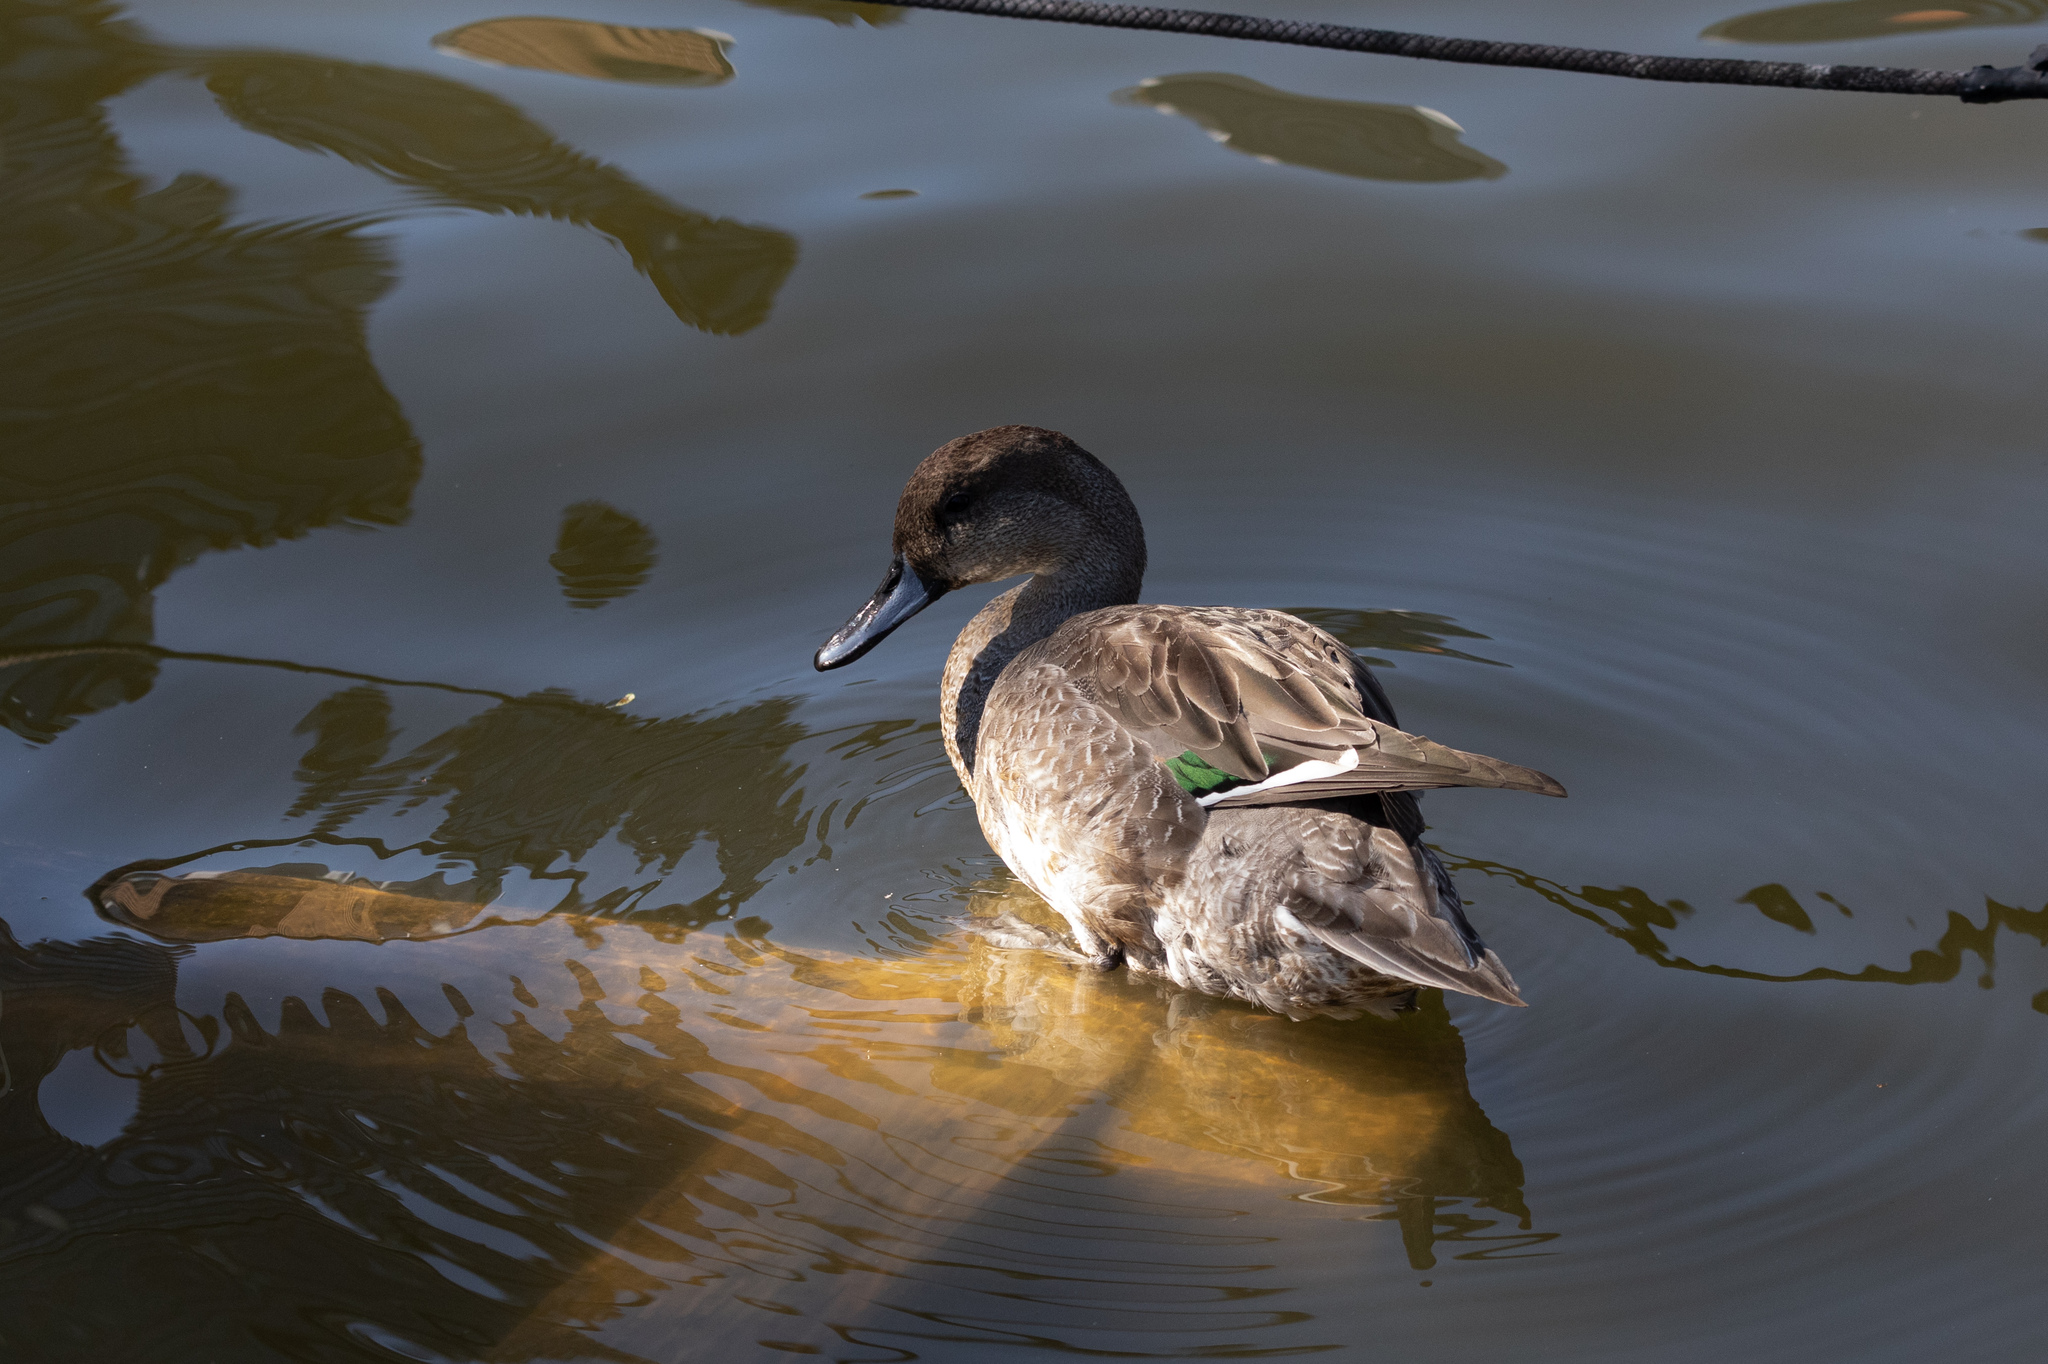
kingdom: Animalia
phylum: Chordata
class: Aves
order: Anseriformes
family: Anatidae
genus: Anas
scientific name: Anas acuta
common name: Northern pintail
